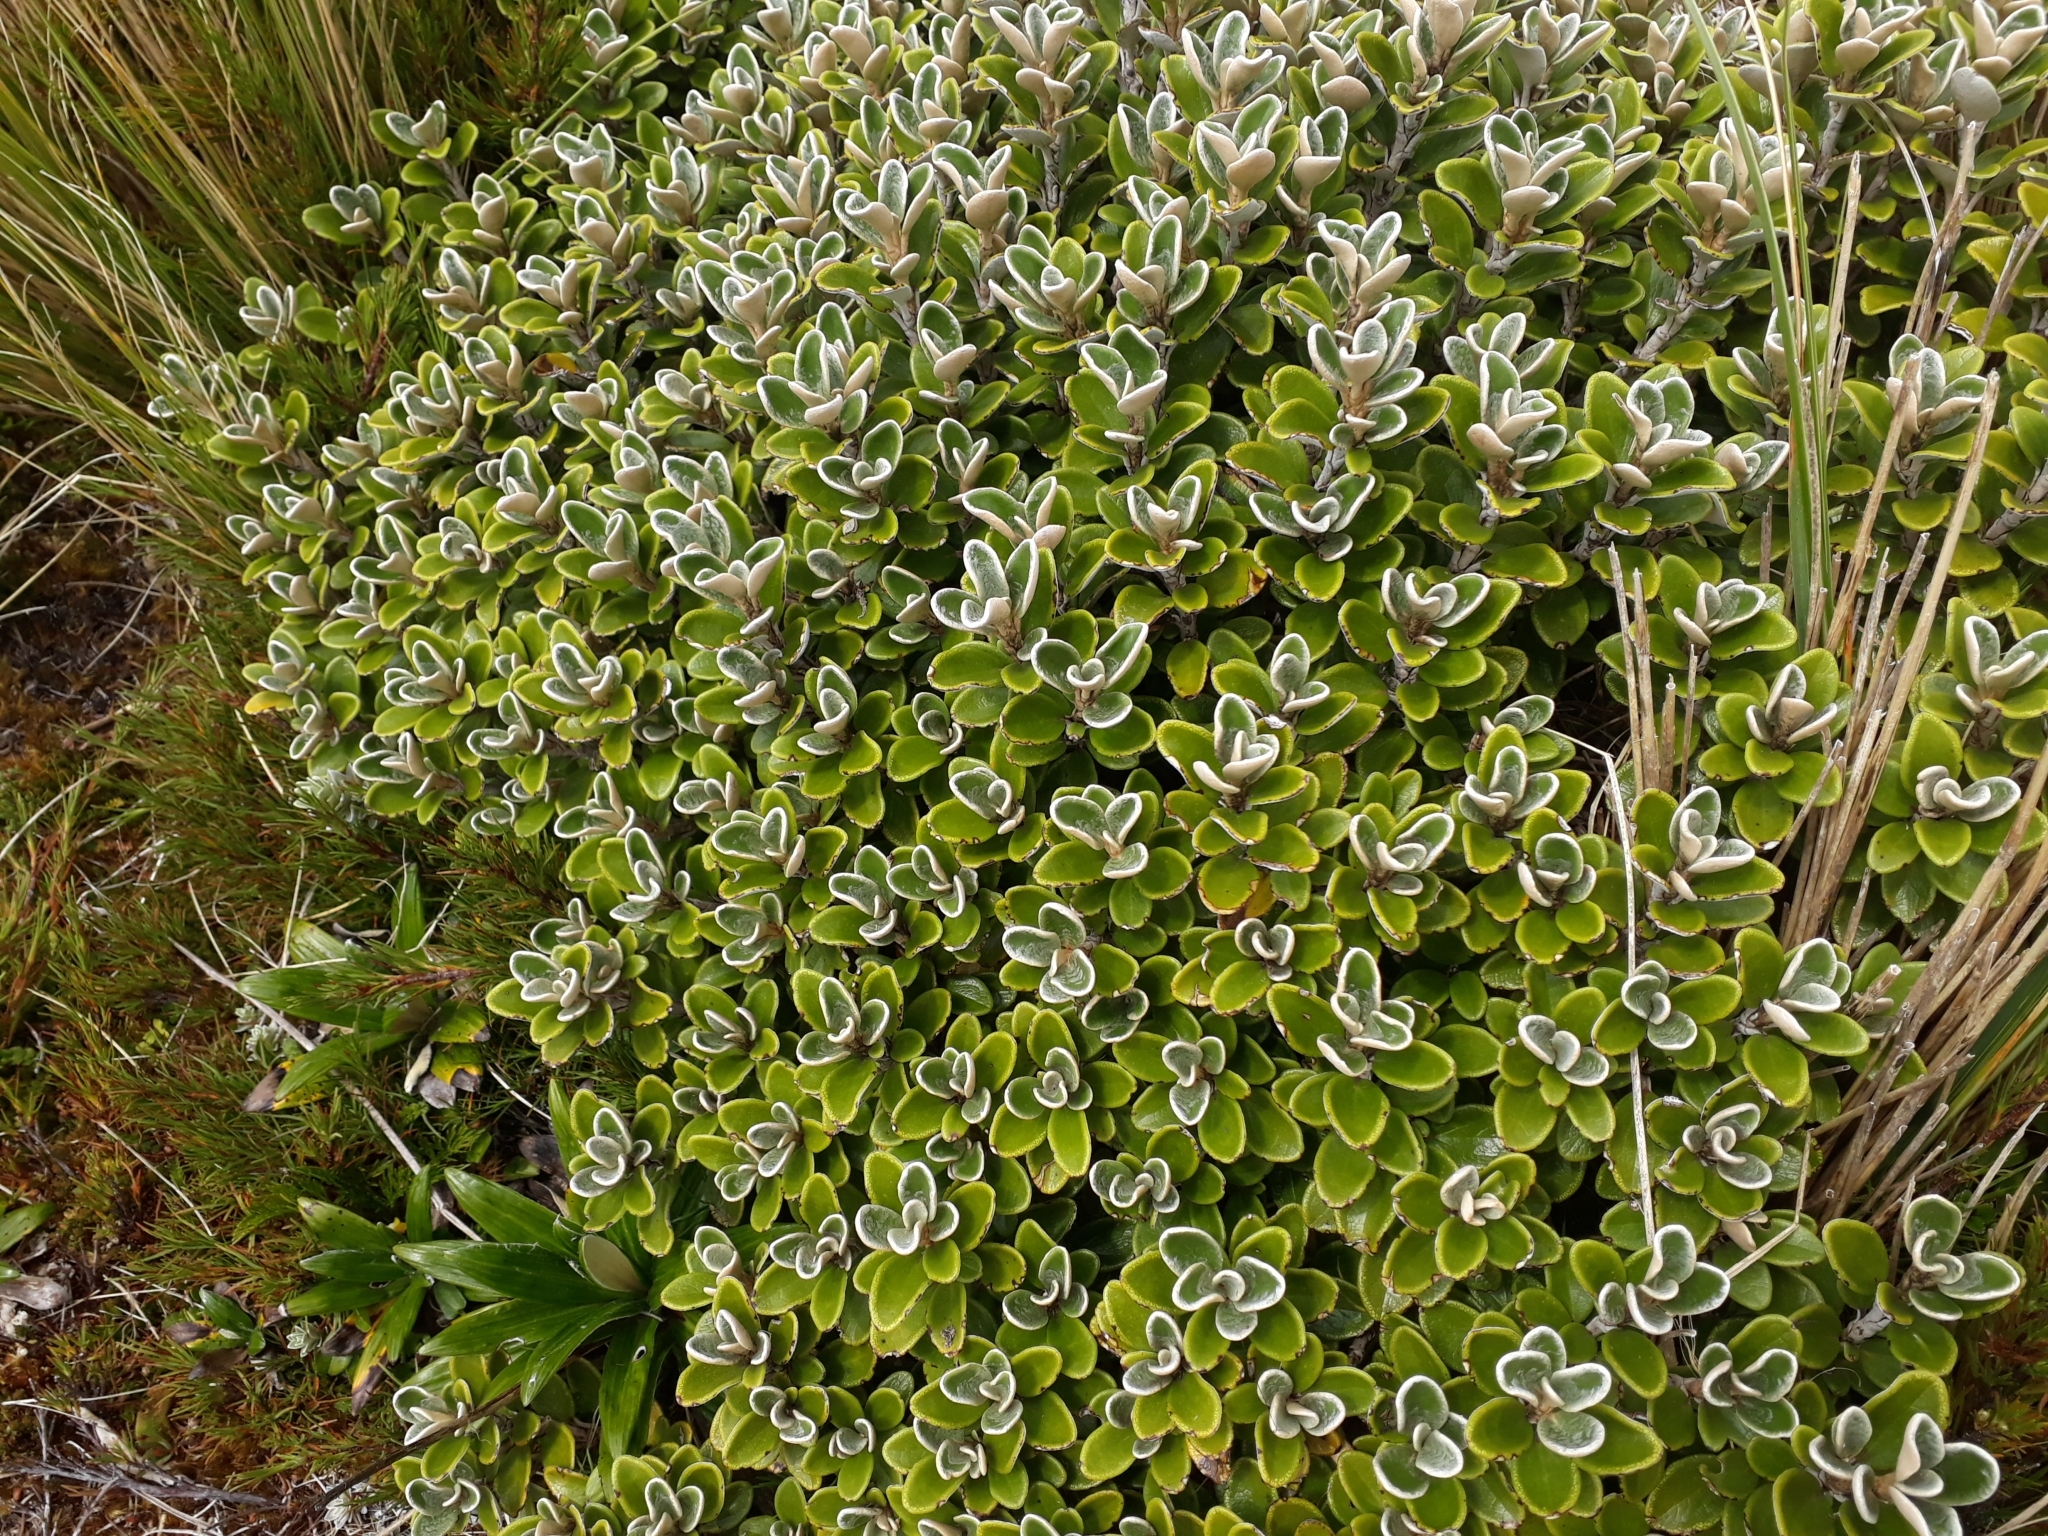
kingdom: Plantae
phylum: Tracheophyta
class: Magnoliopsida
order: Asterales
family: Asteraceae
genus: Brachyglottis
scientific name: Brachyglottis bidwillii
